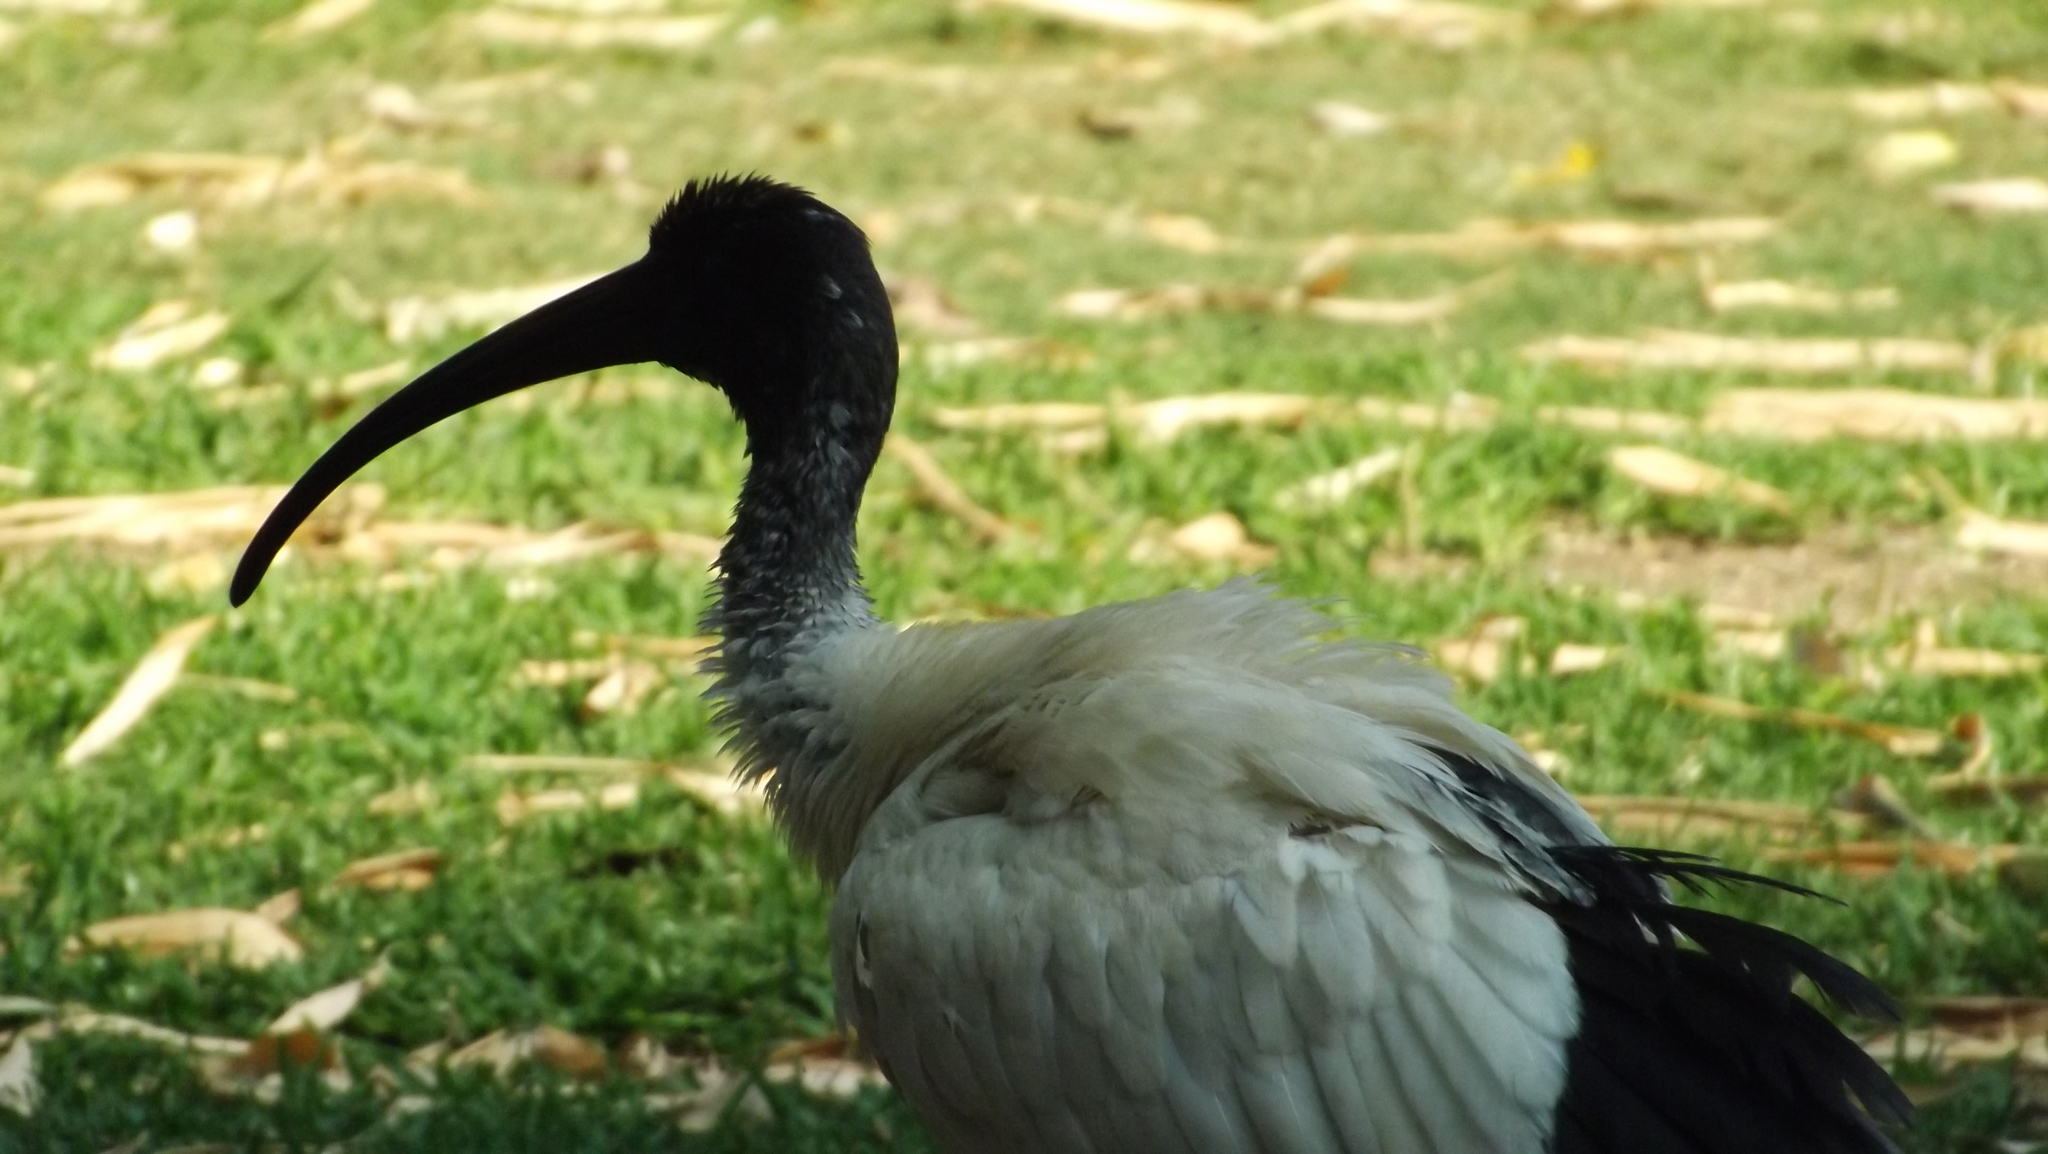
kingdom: Animalia
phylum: Chordata
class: Aves
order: Pelecaniformes
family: Threskiornithidae
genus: Threskiornis
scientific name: Threskiornis molucca
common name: Australian white ibis
